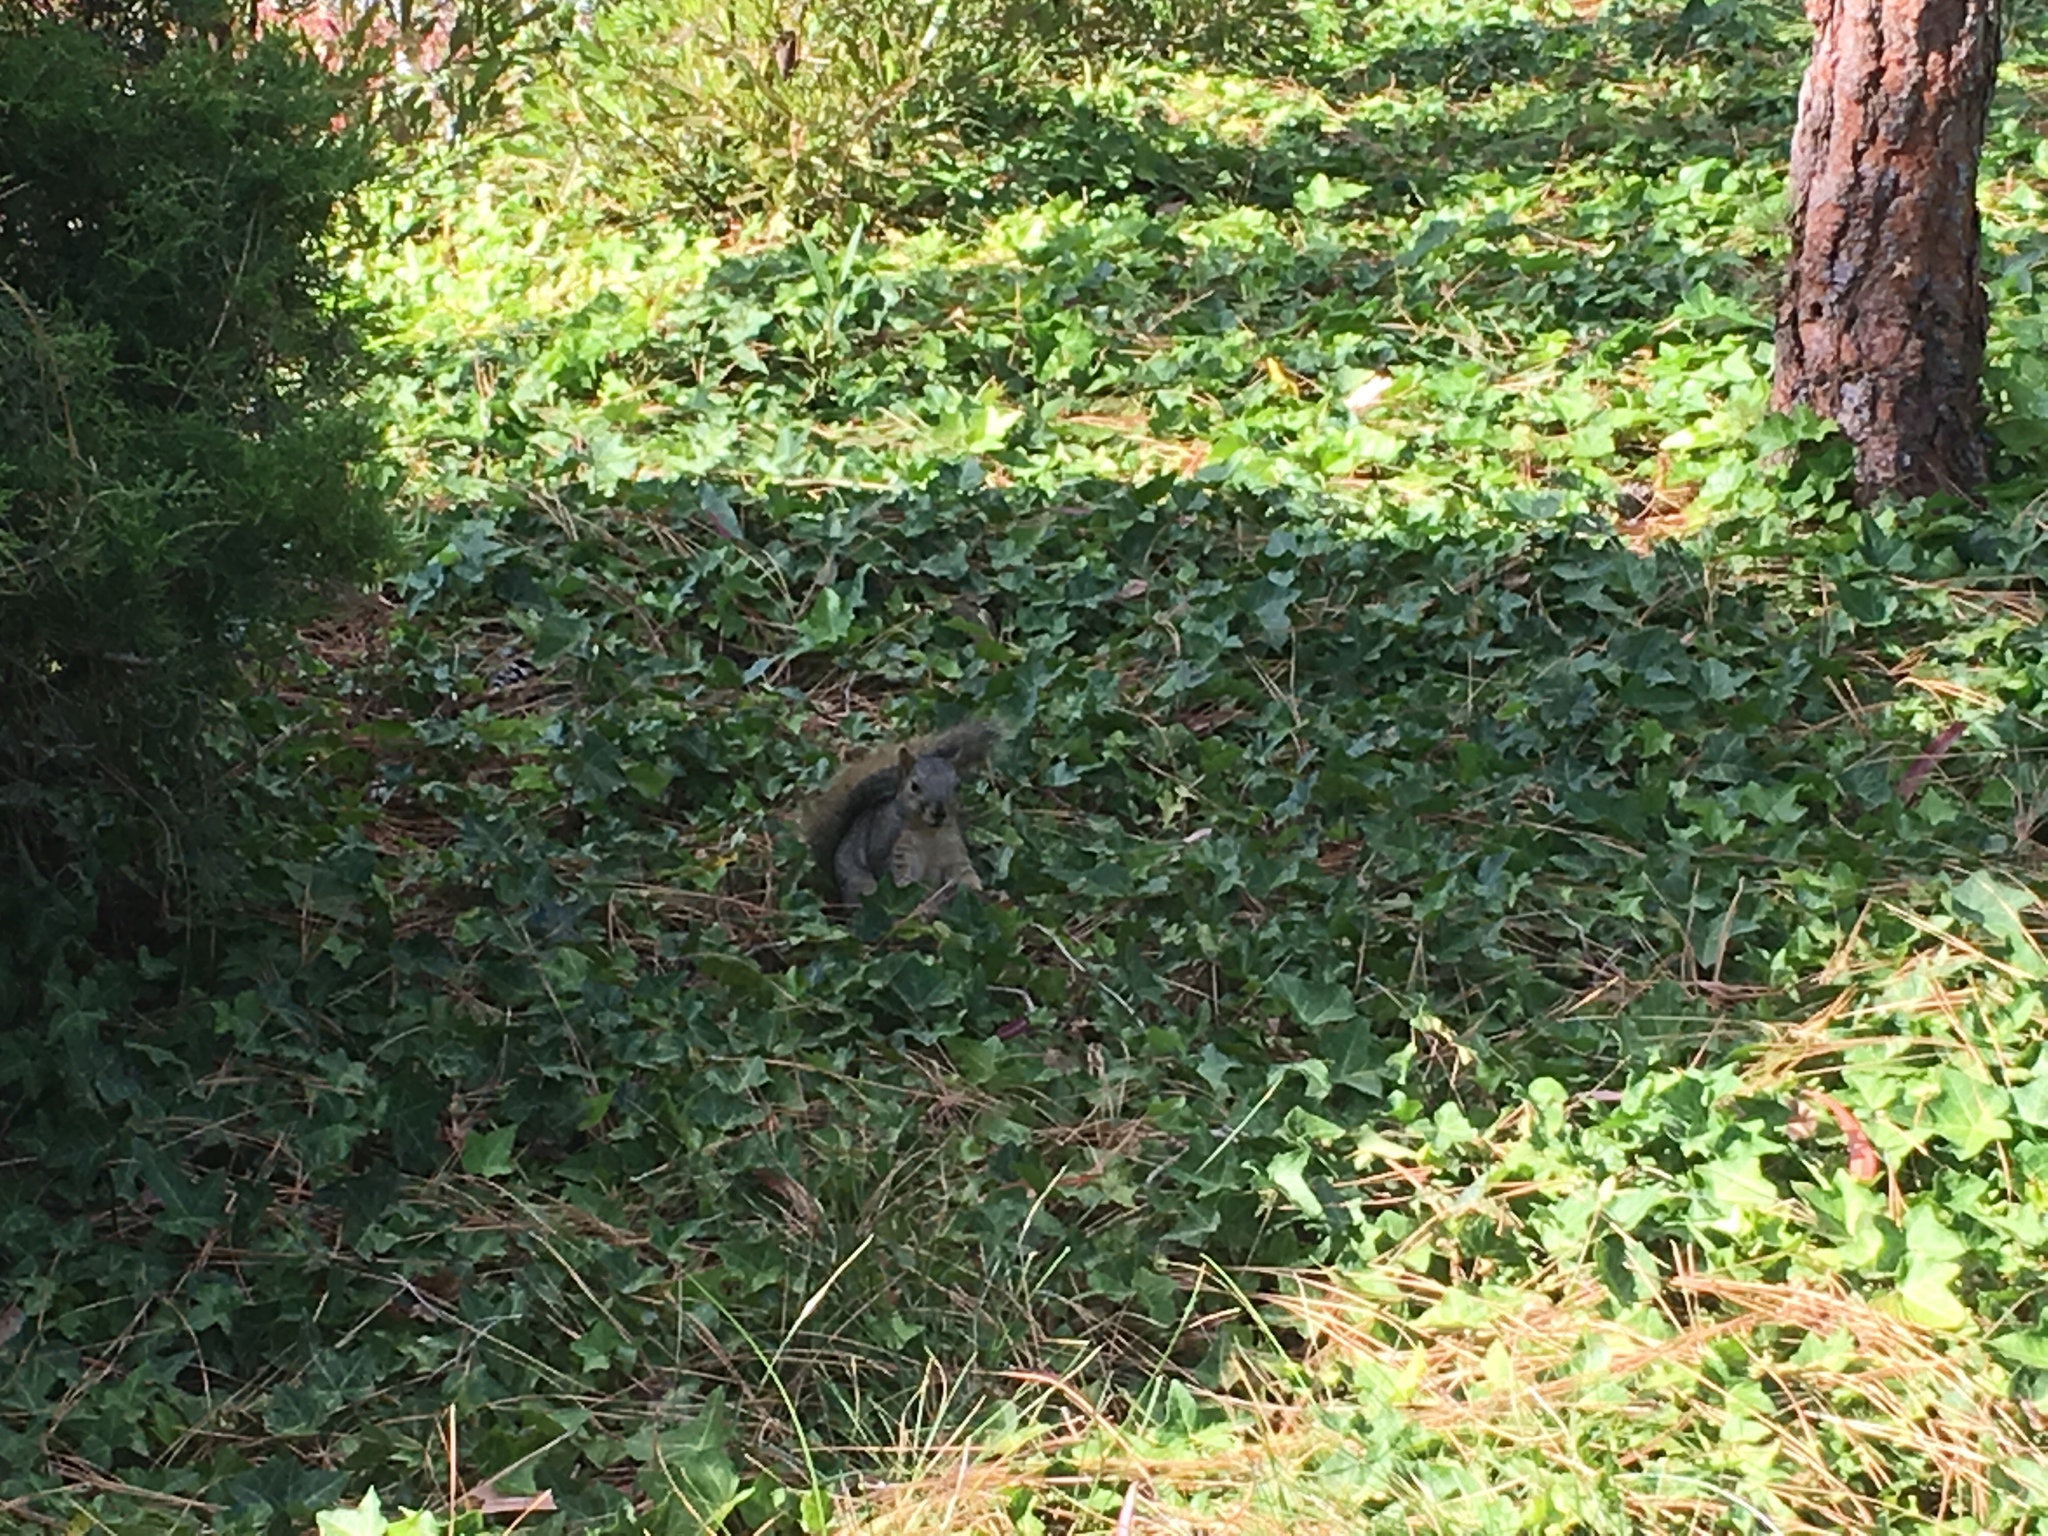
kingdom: Animalia
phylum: Chordata
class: Mammalia
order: Rodentia
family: Sciuridae
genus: Sciurus
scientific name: Sciurus niger
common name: Fox squirrel
